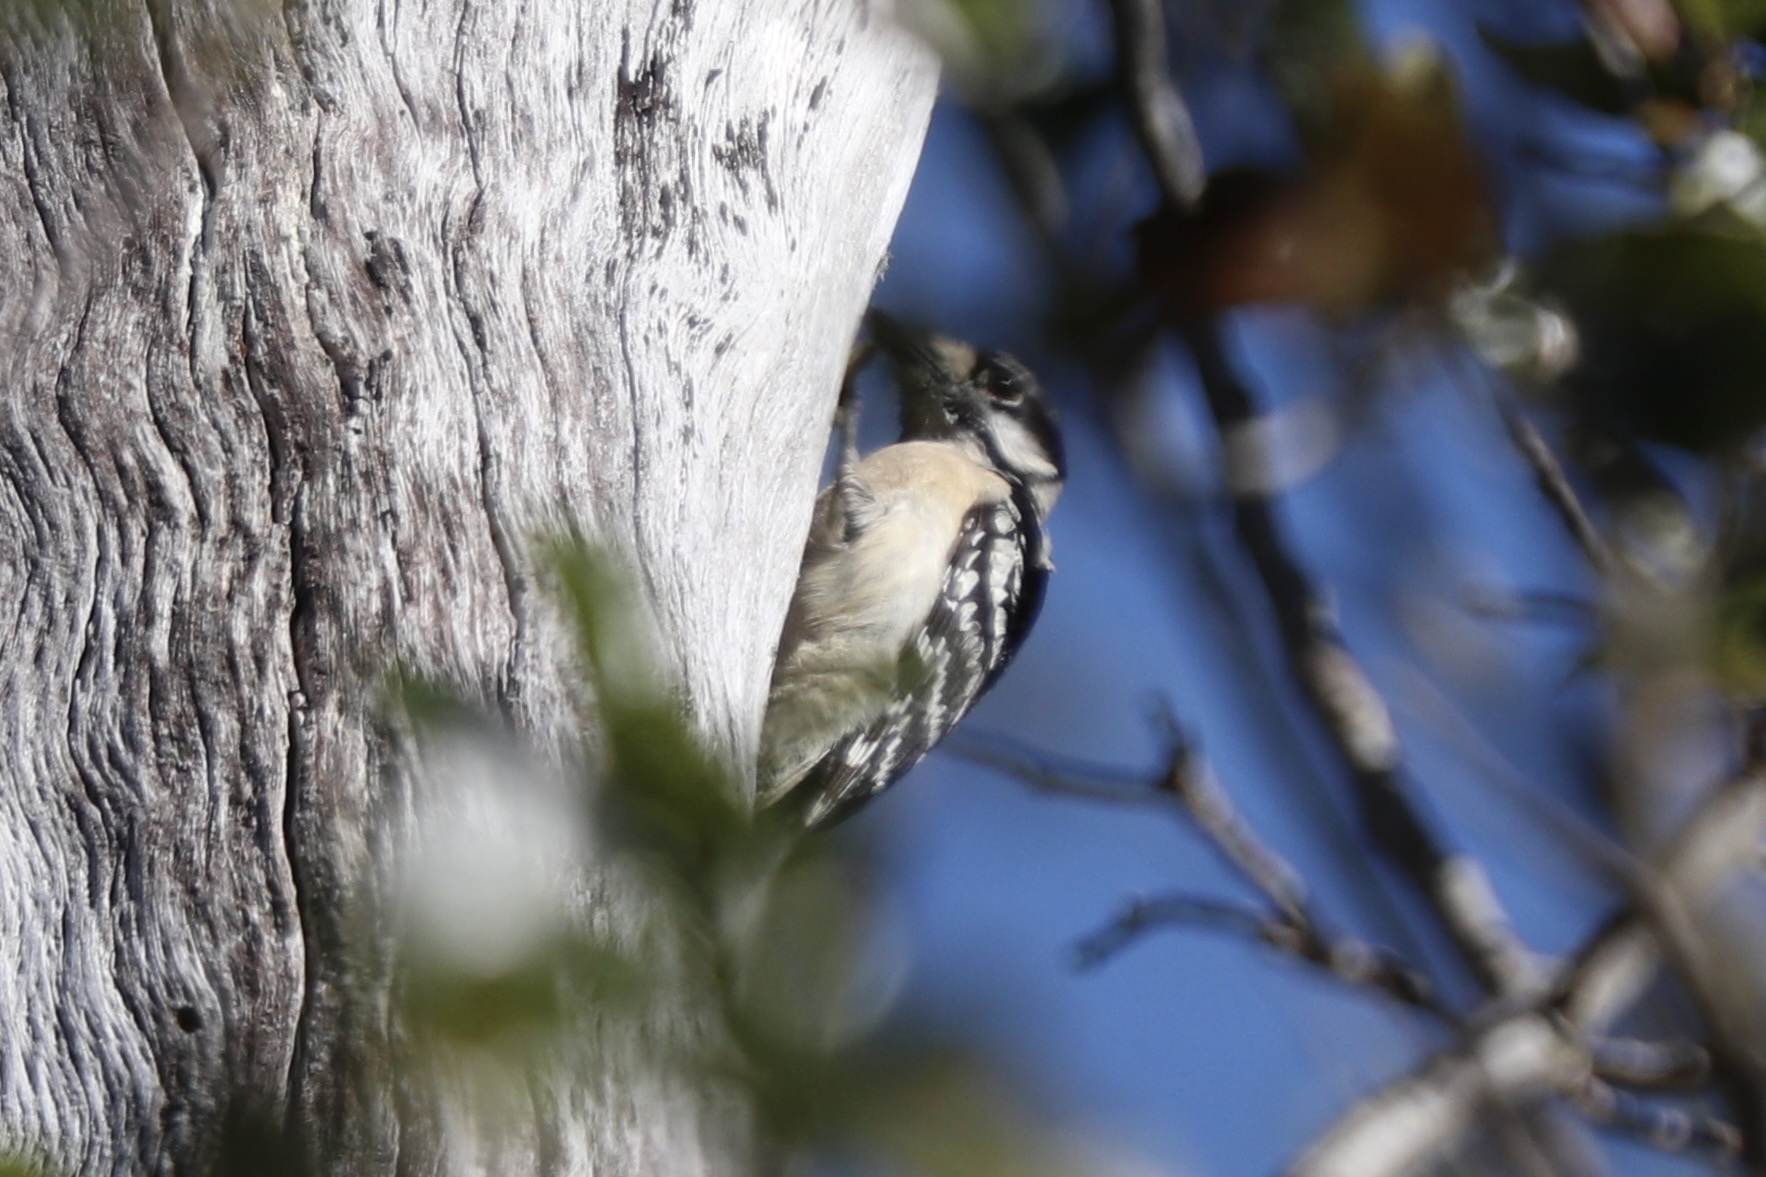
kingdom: Animalia
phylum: Chordata
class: Aves
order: Piciformes
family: Picidae
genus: Dryobates
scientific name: Dryobates pubescens
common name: Downy woodpecker
